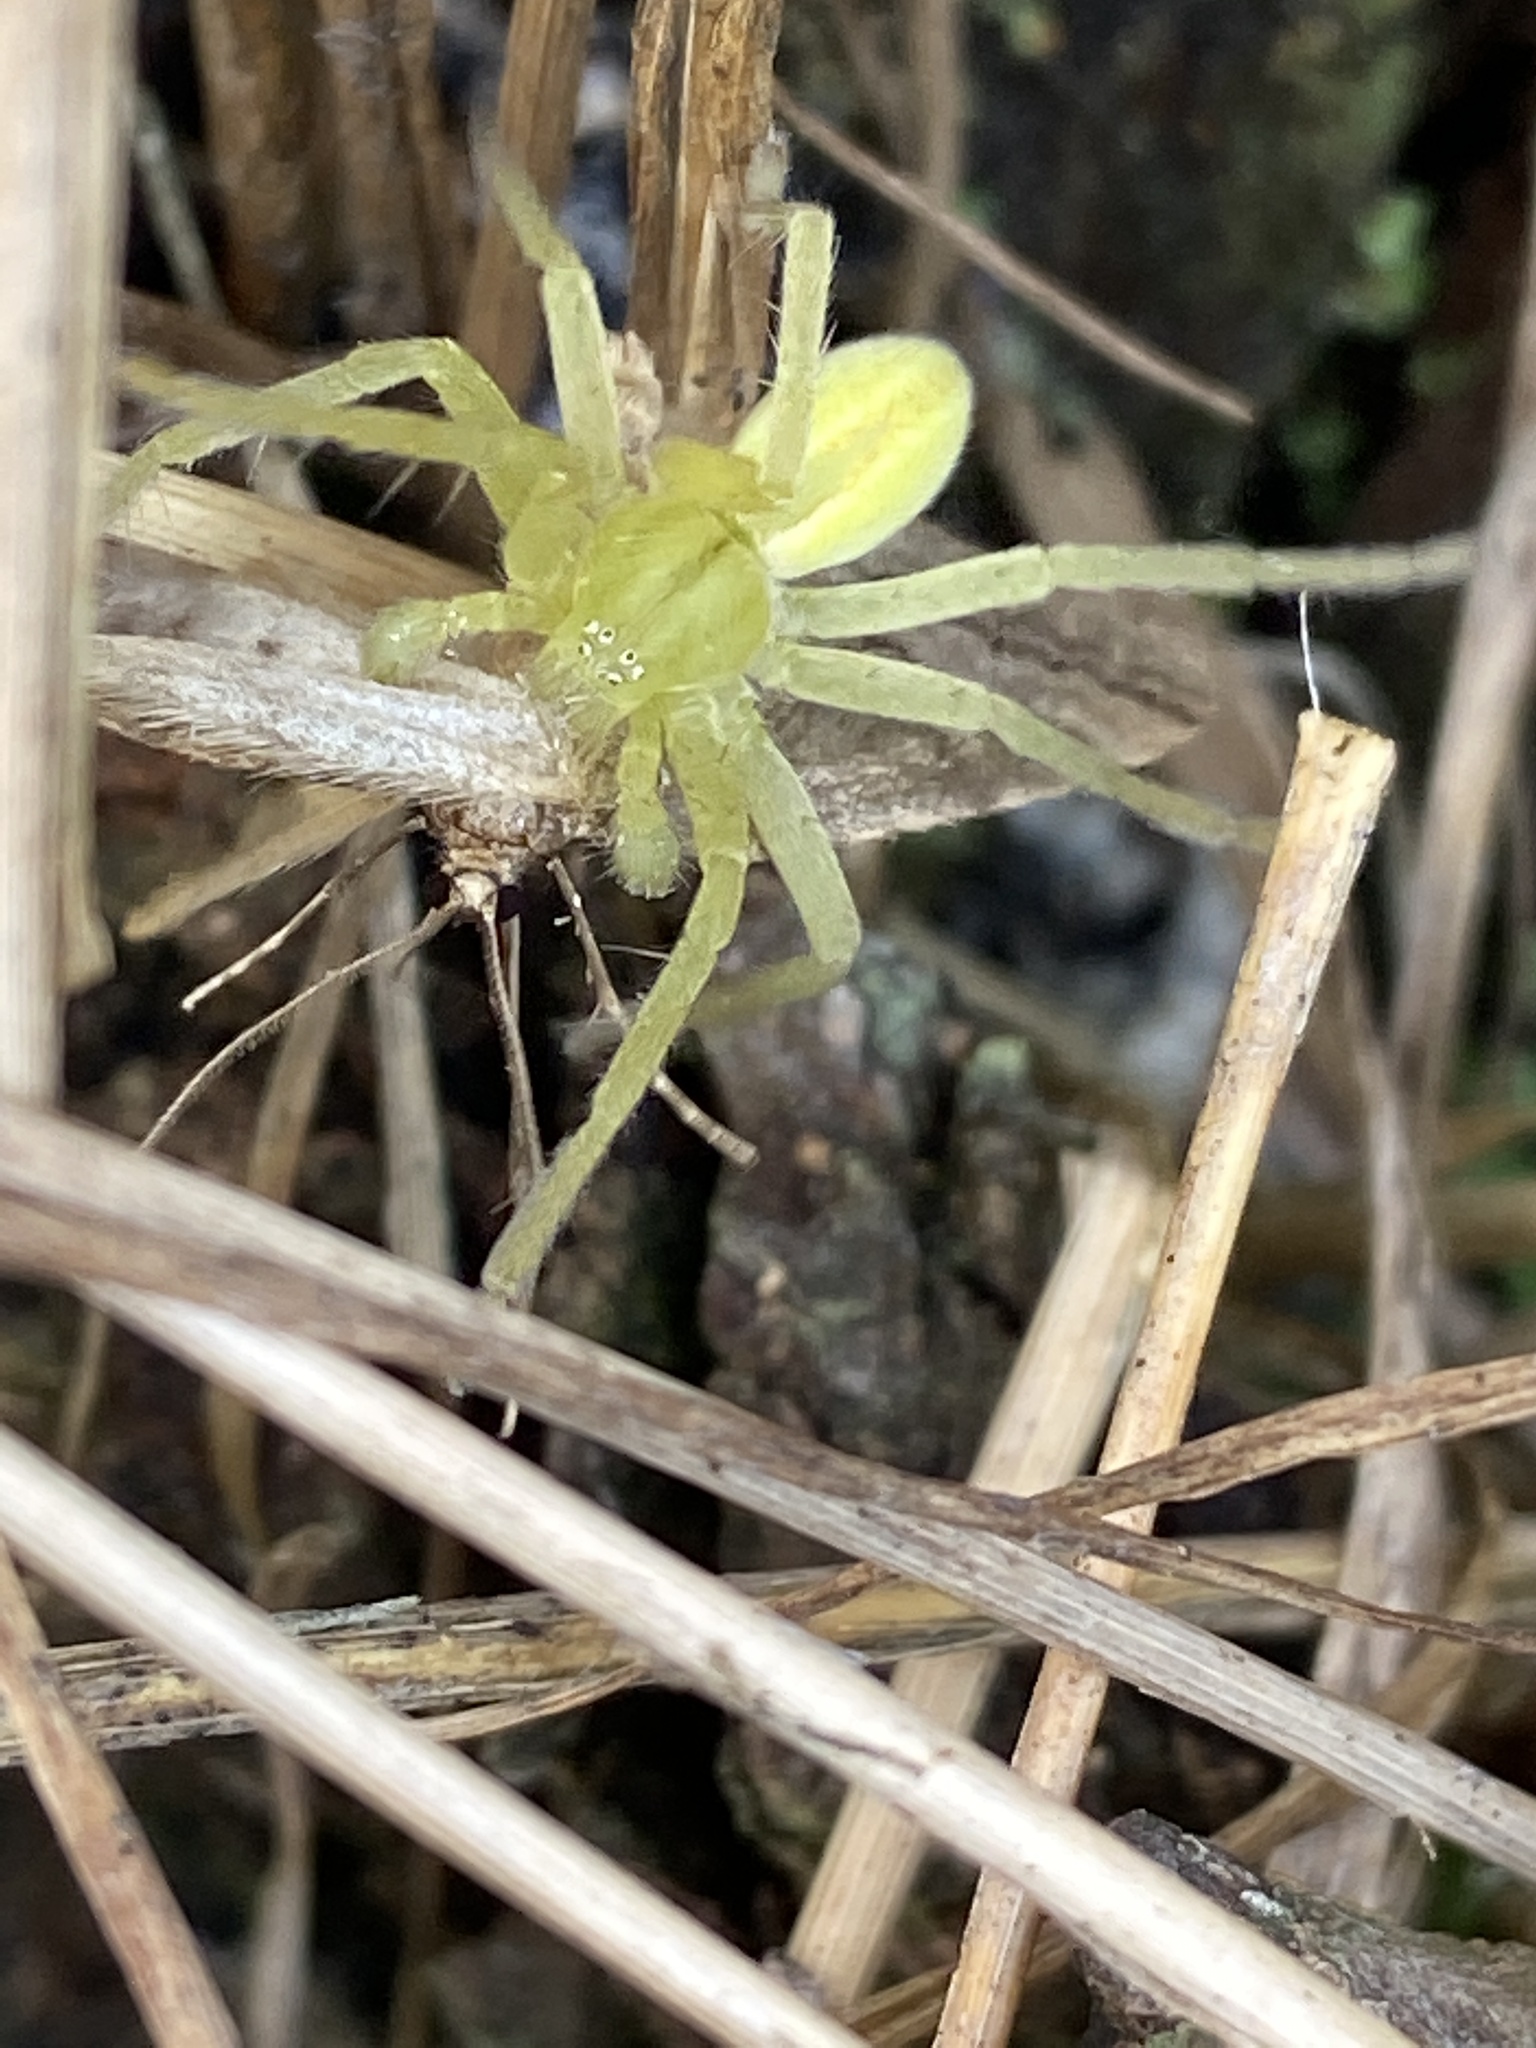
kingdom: Animalia
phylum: Arthropoda
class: Arachnida
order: Araneae
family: Sparassidae
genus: Micrommata
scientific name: Micrommata virescens
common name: Green spider
